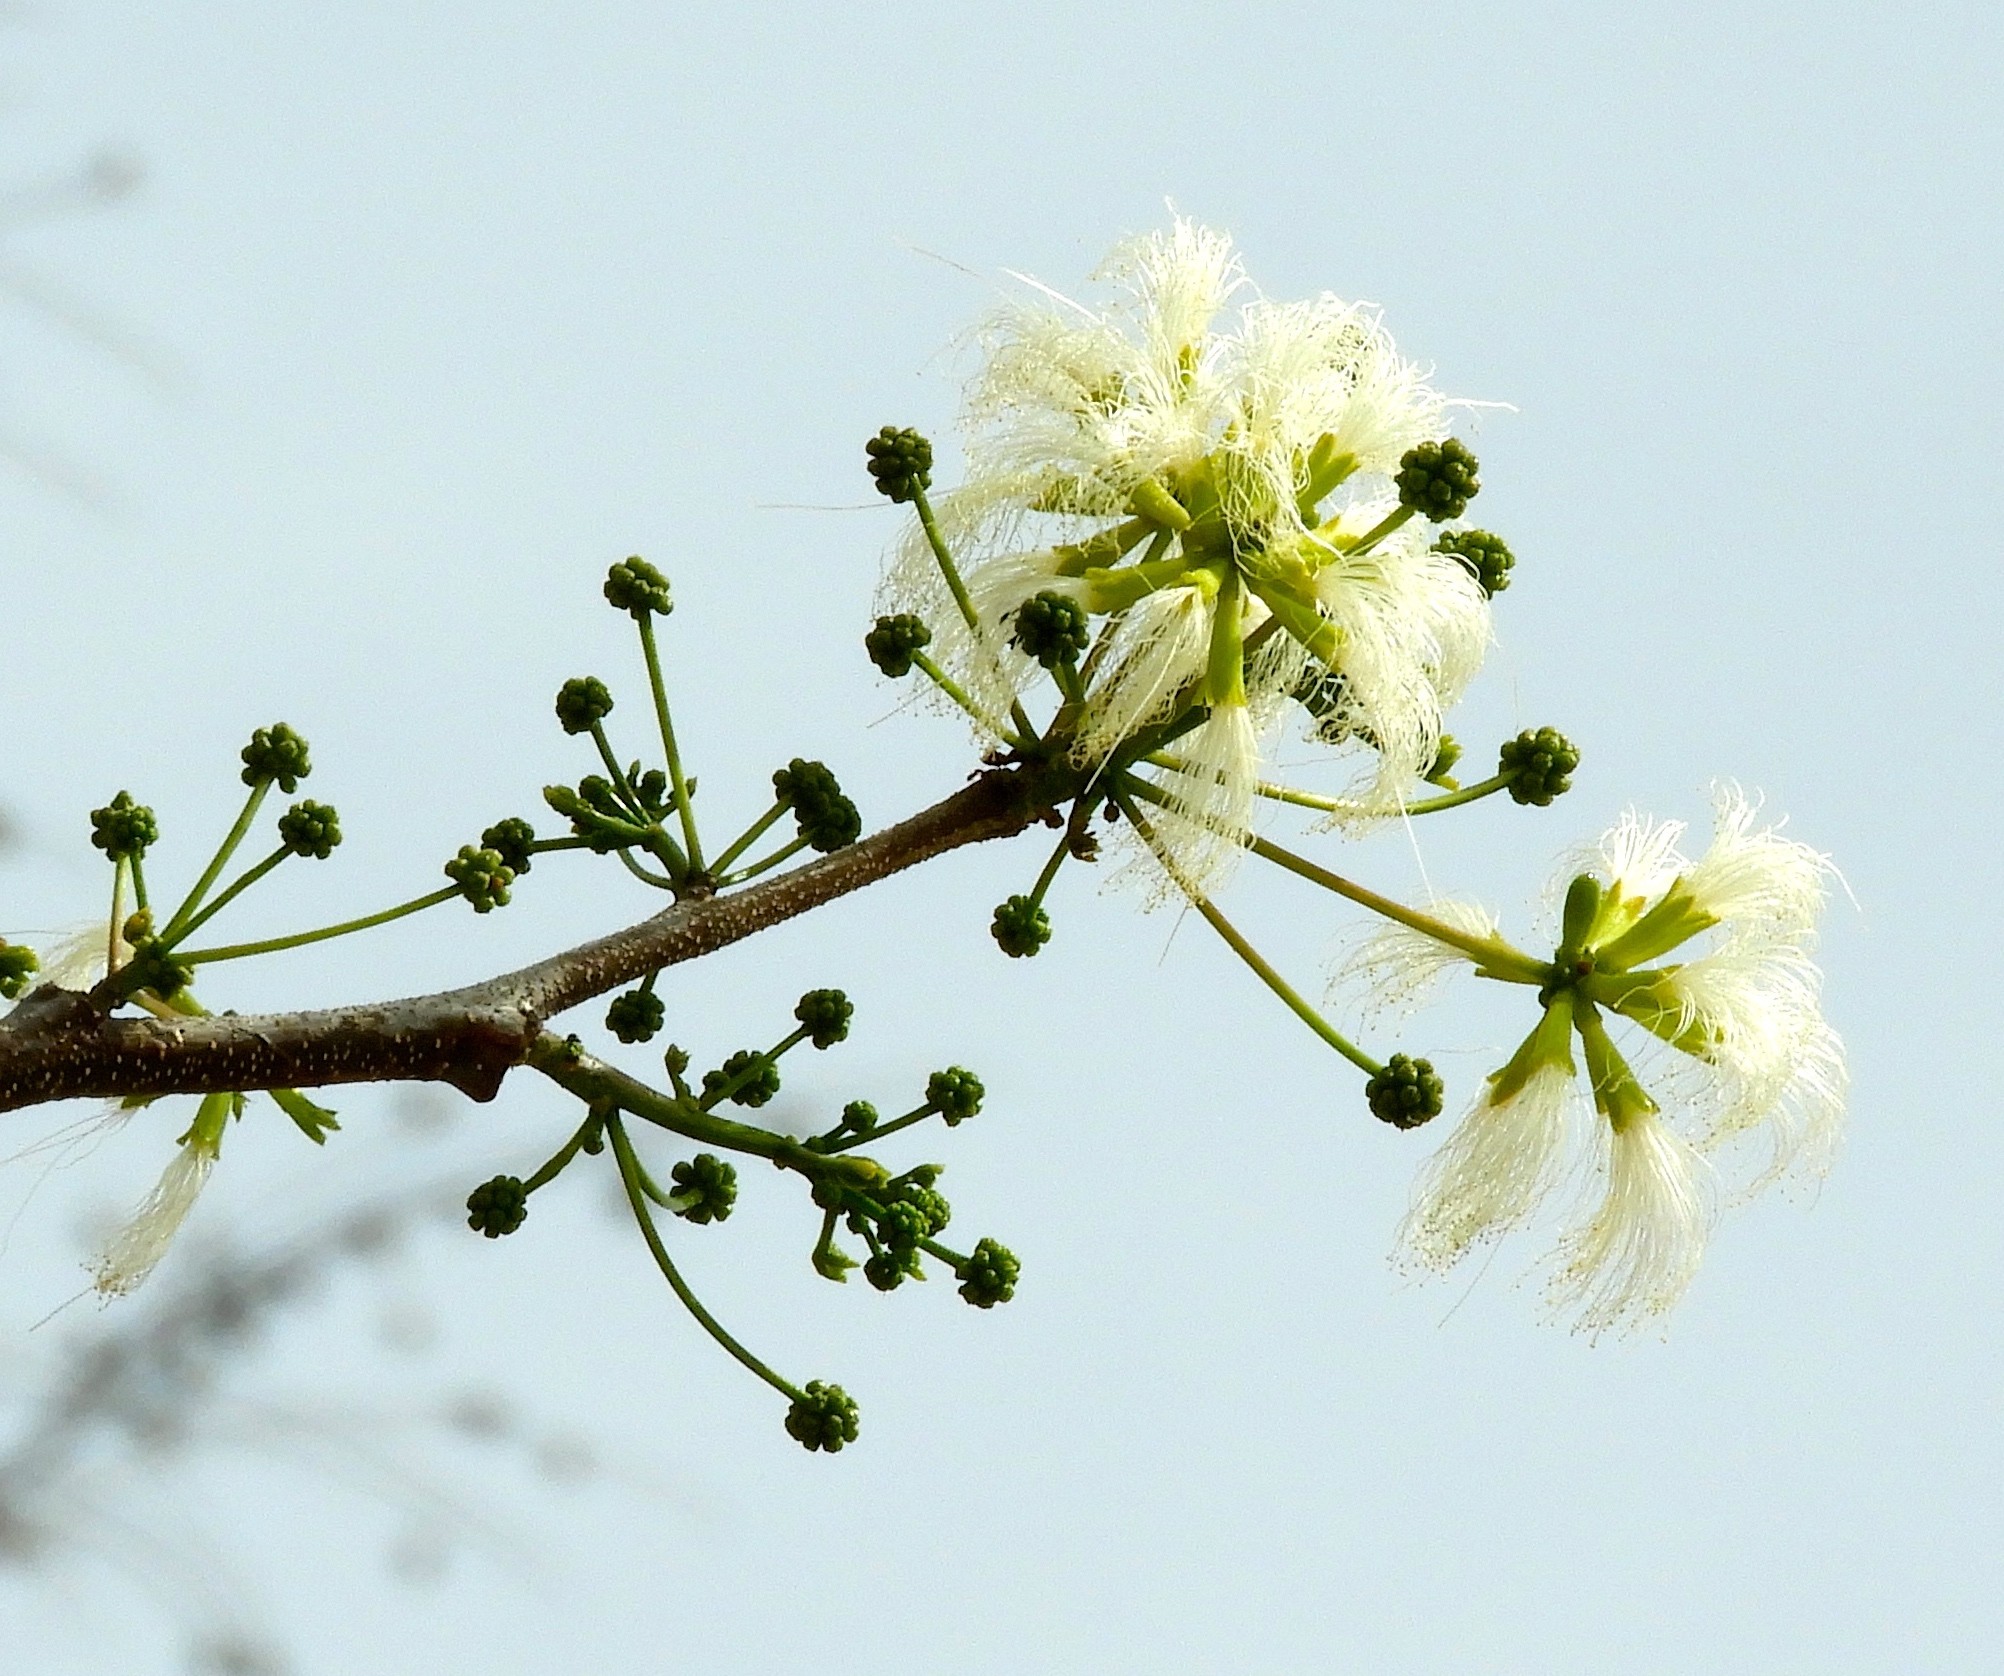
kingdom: Plantae
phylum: Tracheophyta
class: Magnoliopsida
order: Fabales
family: Fabaceae
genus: Albizia
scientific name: Albizia
